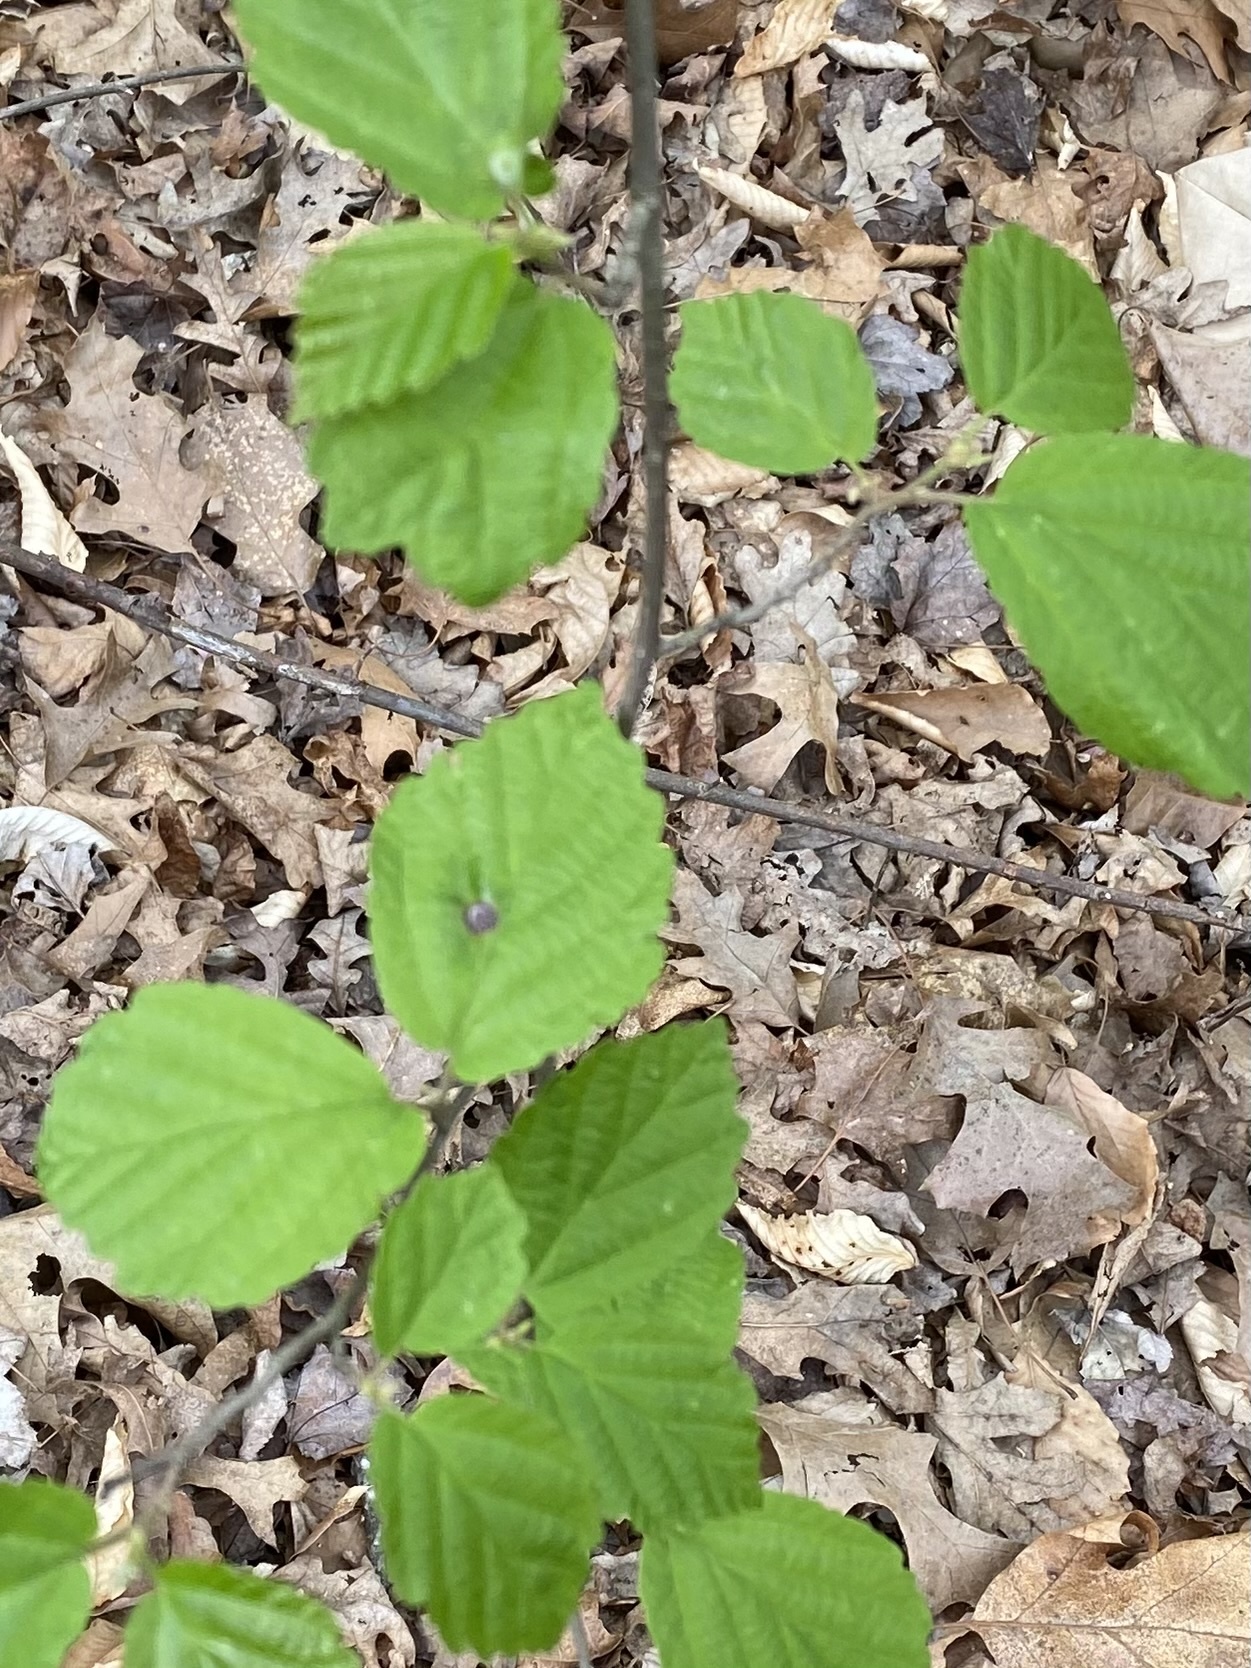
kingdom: Plantae
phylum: Tracheophyta
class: Magnoliopsida
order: Saxifragales
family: Hamamelidaceae
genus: Hamamelis
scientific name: Hamamelis virginiana
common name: Witch-hazel
